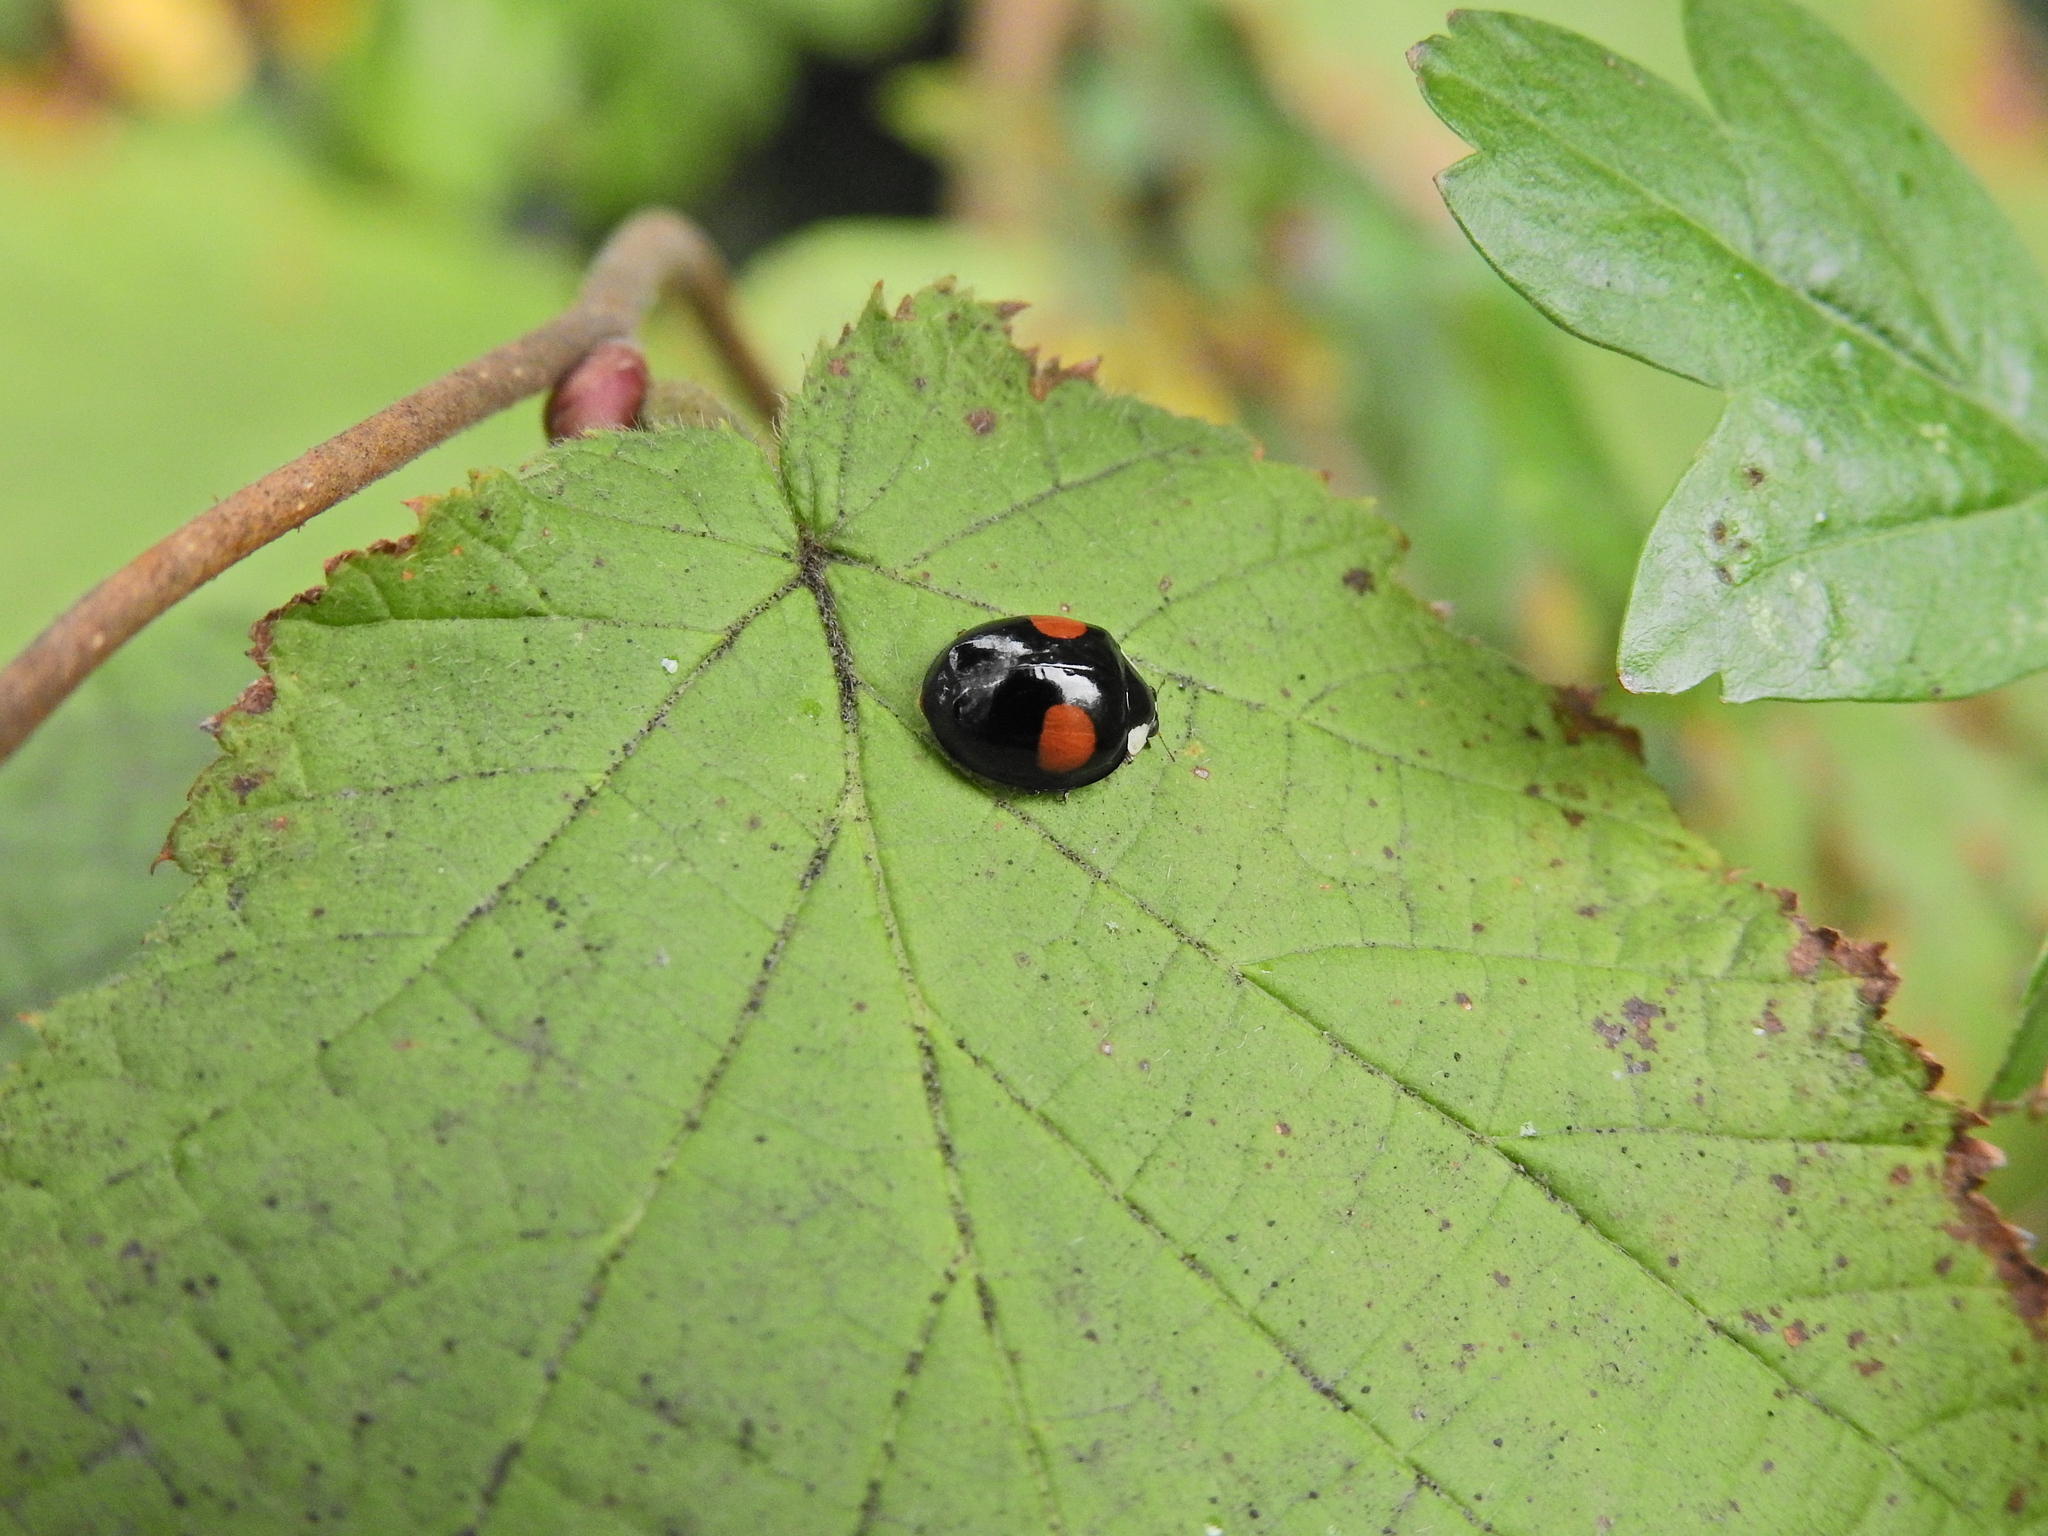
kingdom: Animalia
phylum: Arthropoda
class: Insecta
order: Coleoptera
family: Coccinellidae
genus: Harmonia
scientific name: Harmonia axyridis
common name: Harlequin ladybird
